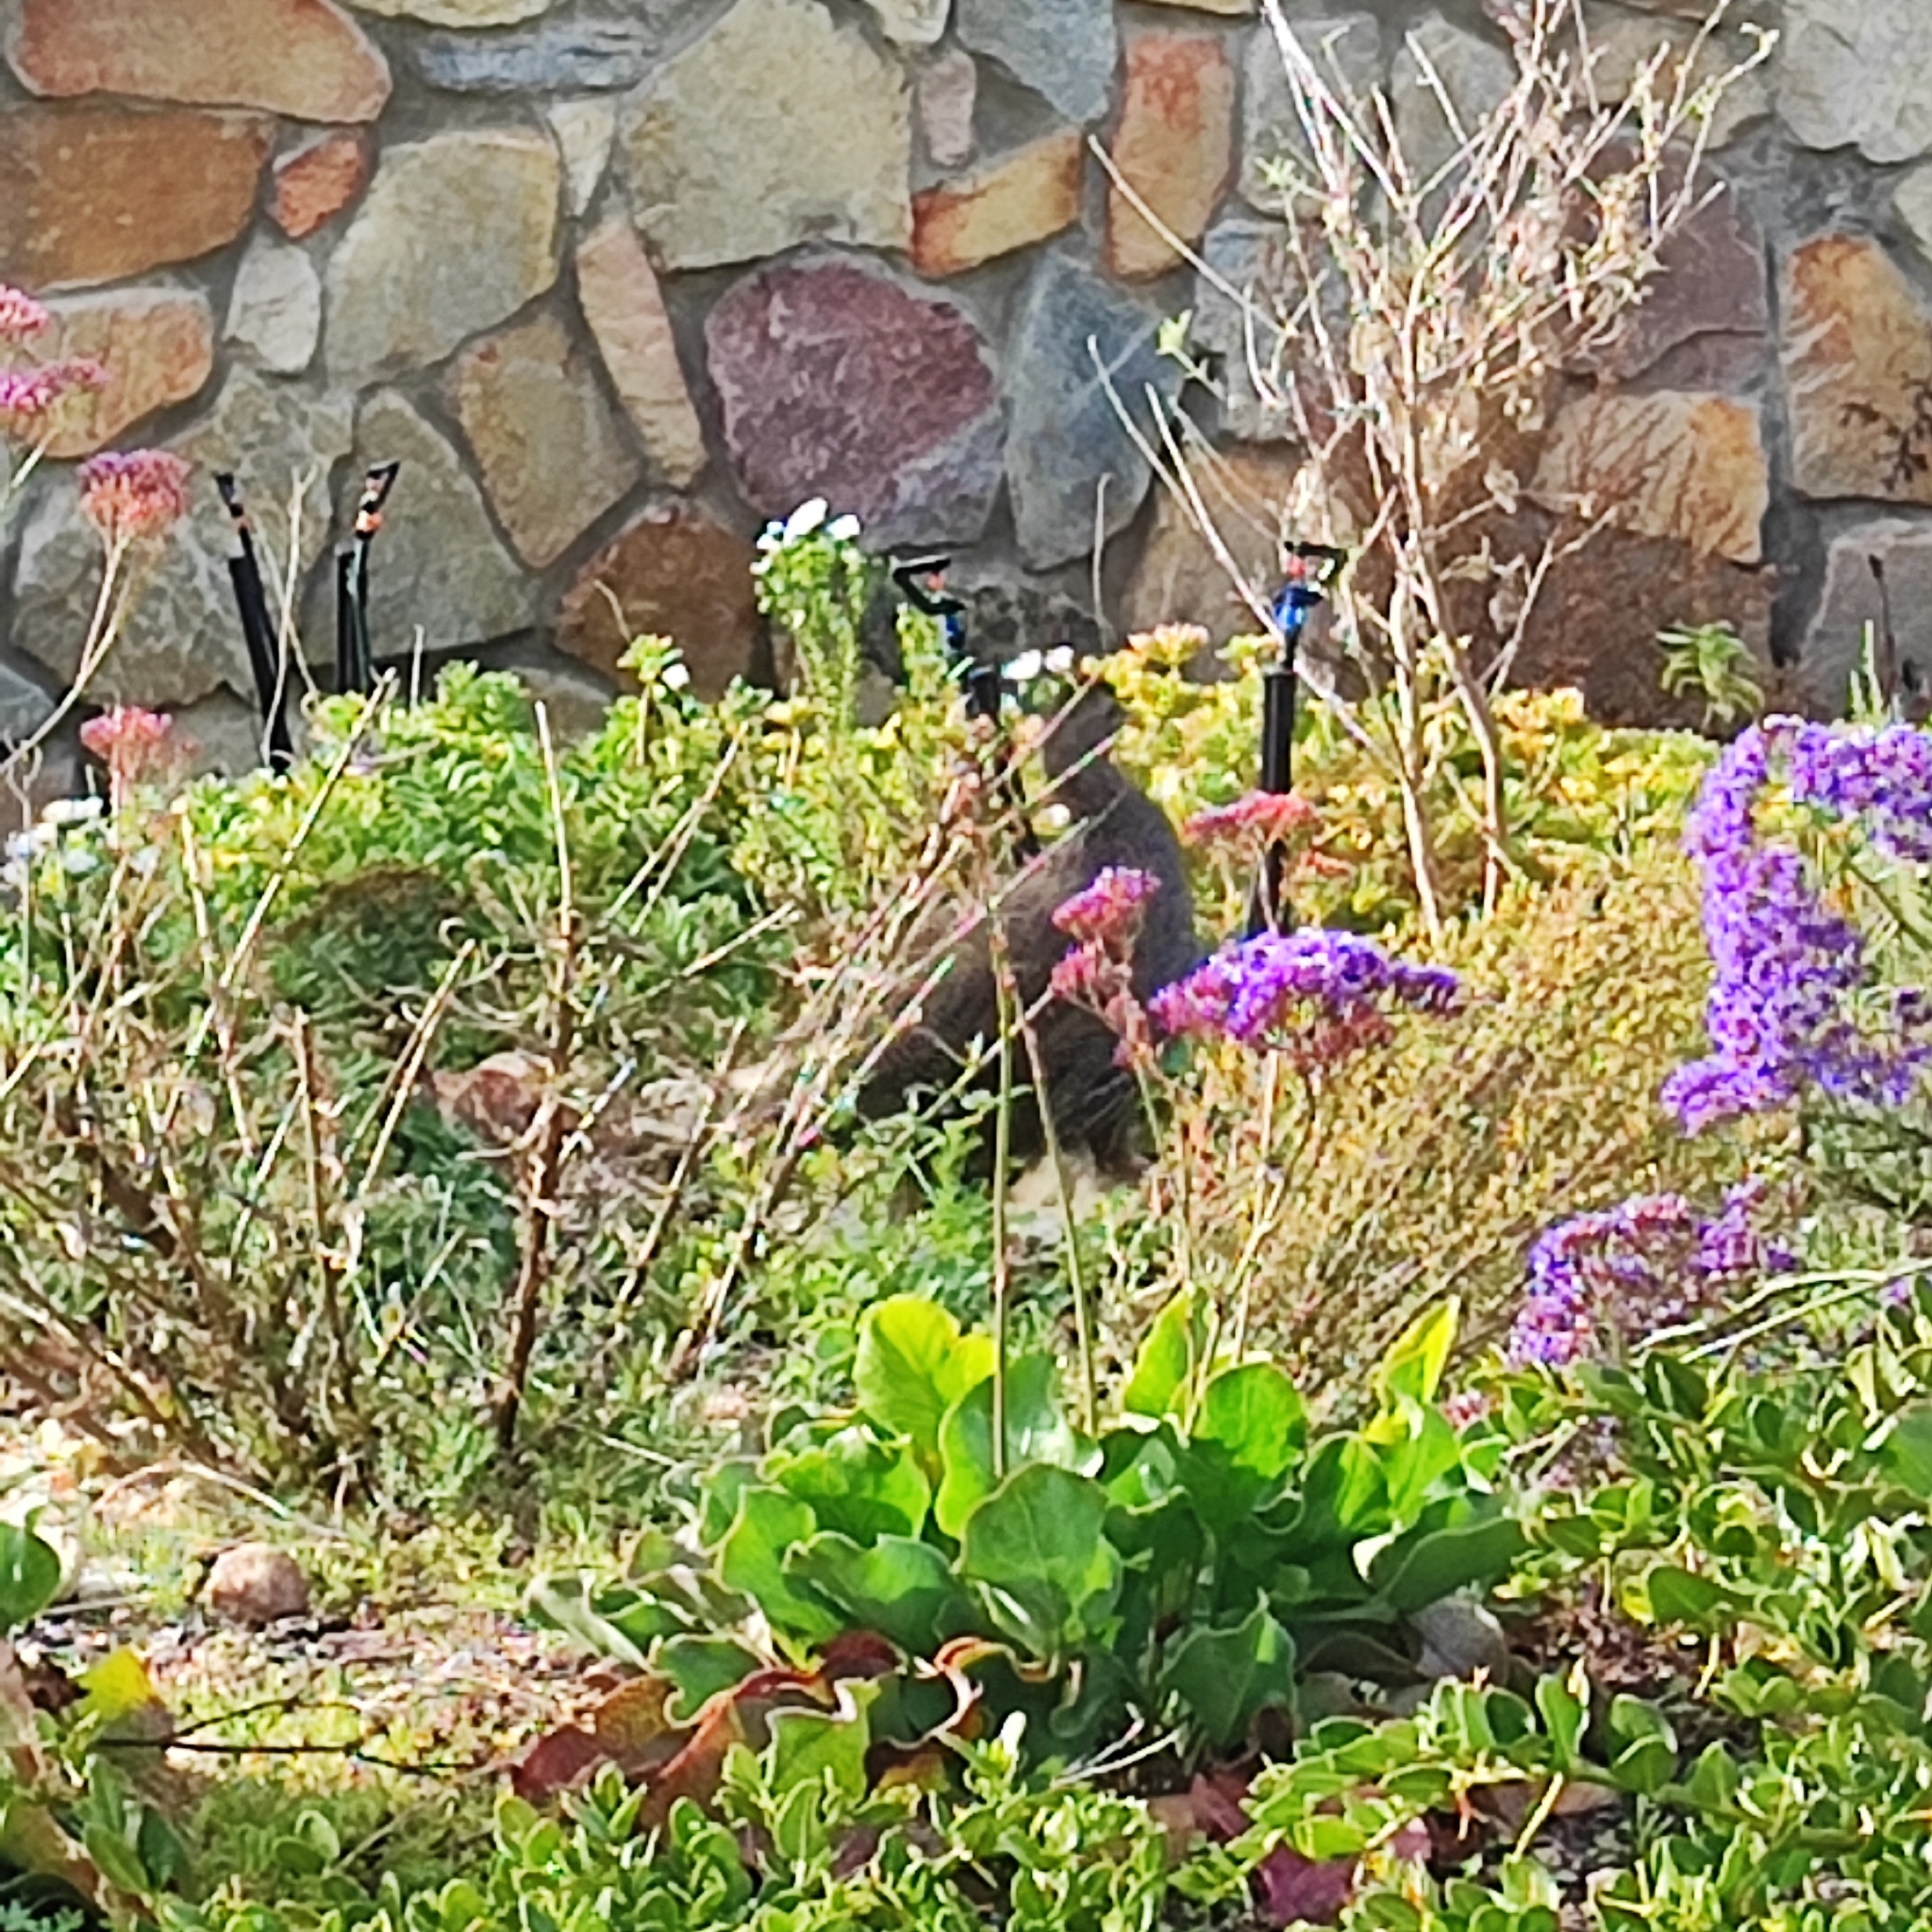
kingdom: Animalia
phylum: Chordata
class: Aves
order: Galliformes
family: Phasianidae
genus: Pternistis
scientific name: Pternistis capensis
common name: Cape spurfowl
